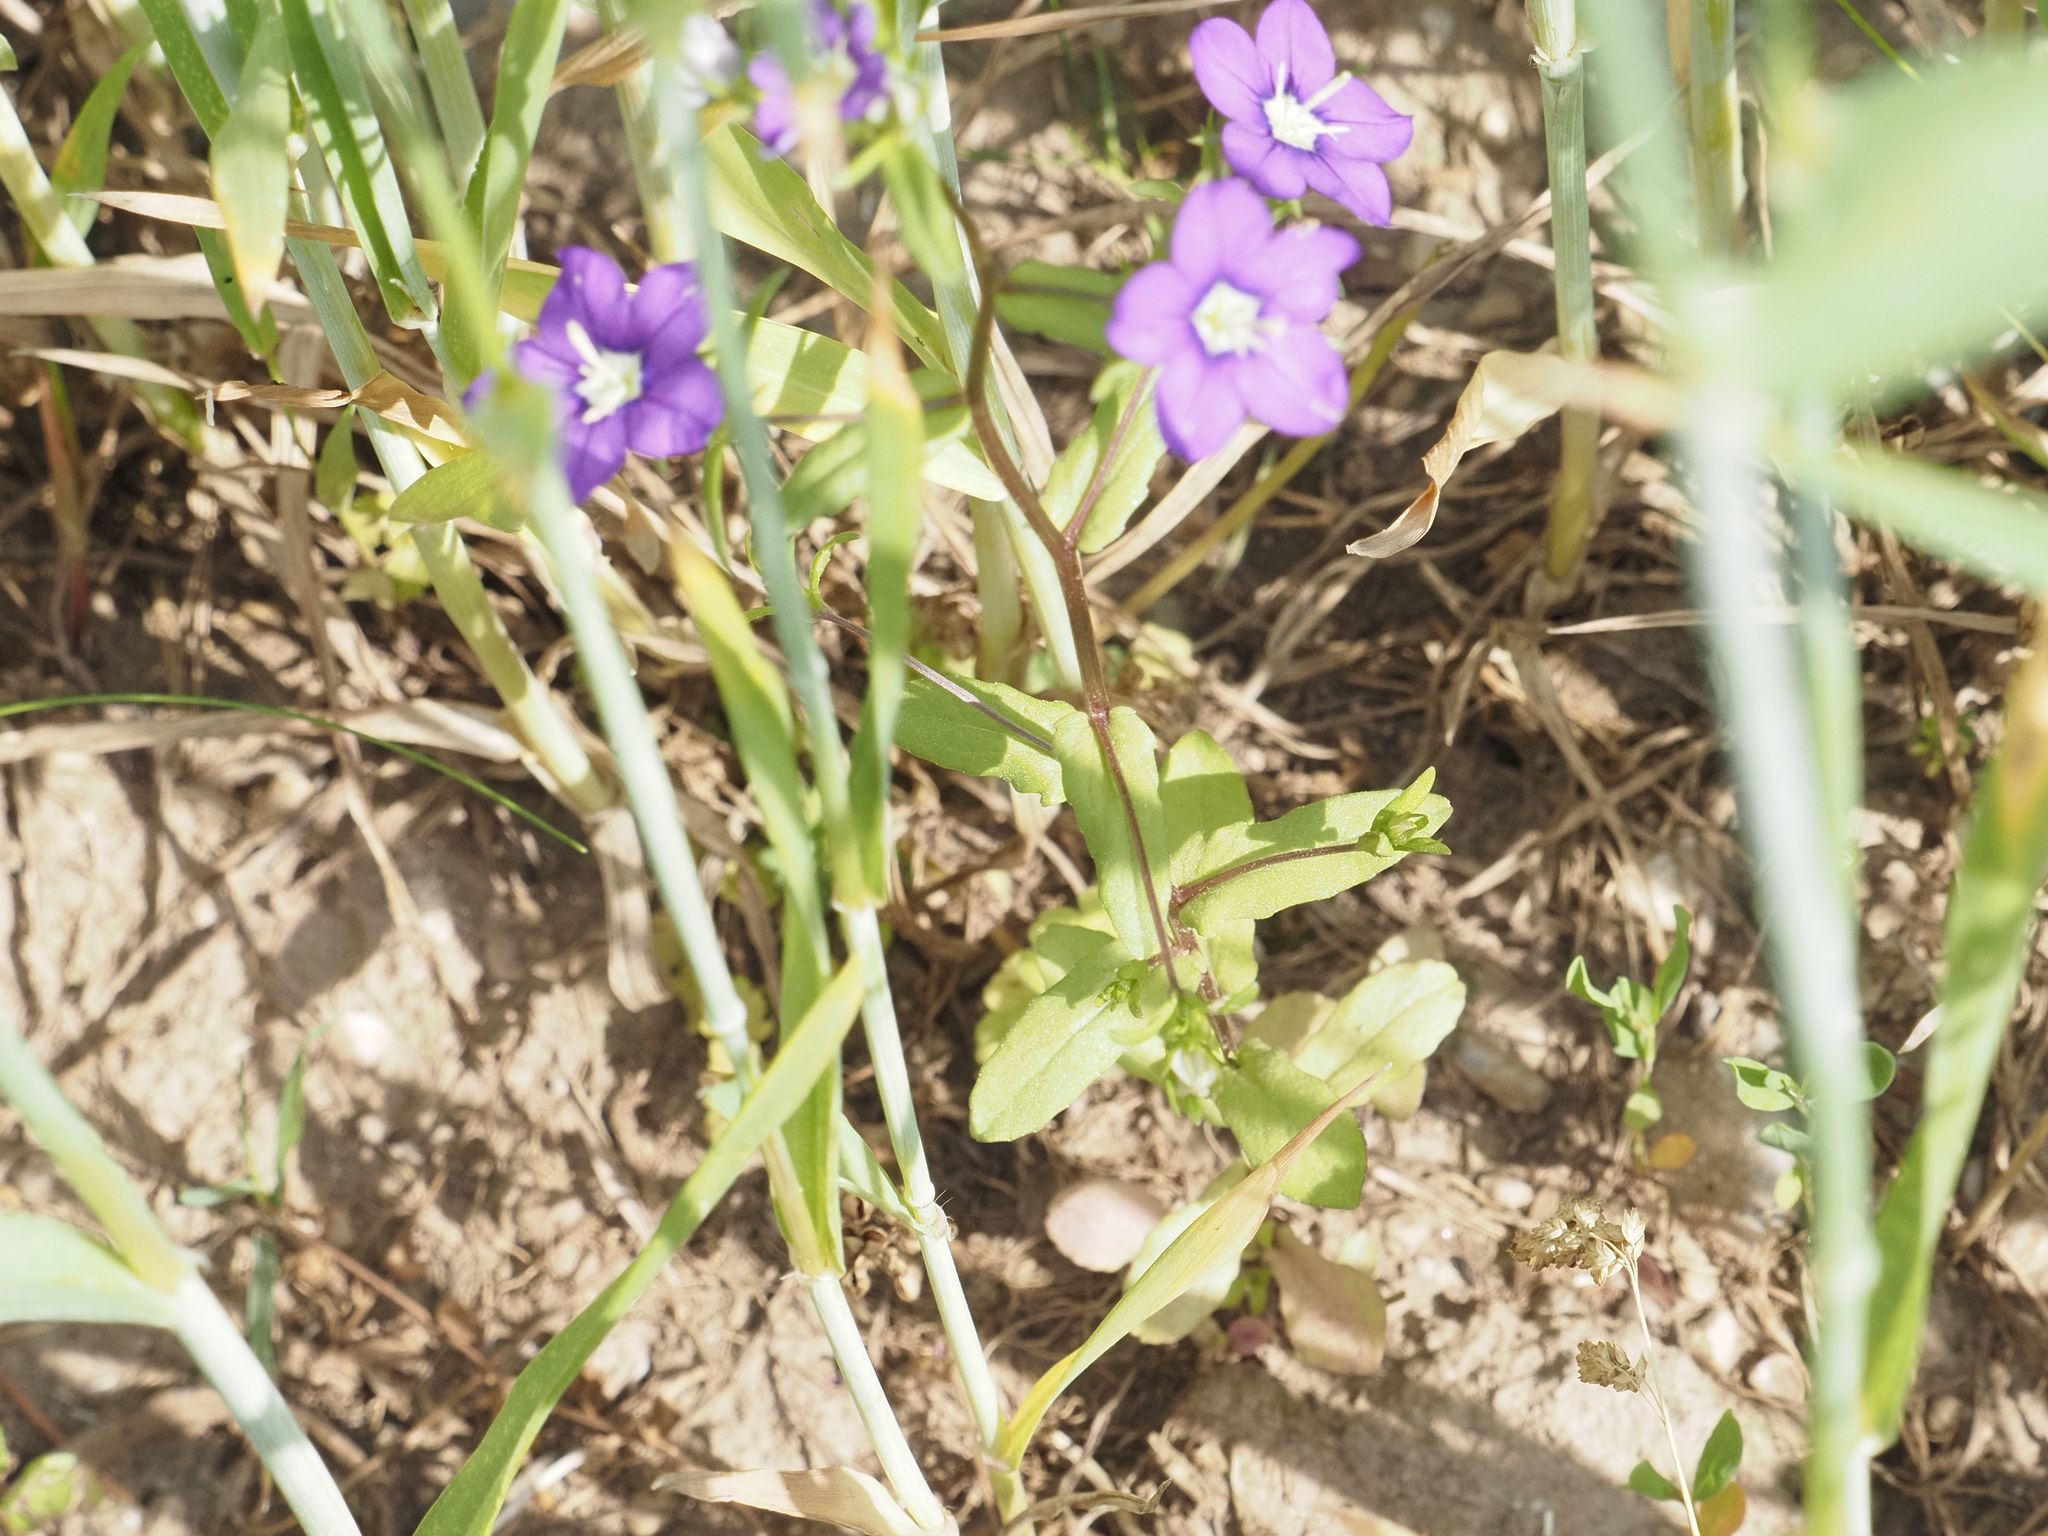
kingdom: Plantae
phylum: Tracheophyta
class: Magnoliopsida
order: Asterales
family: Campanulaceae
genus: Legousia
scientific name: Legousia speculum-veneris
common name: Large venus's-looking-glass
